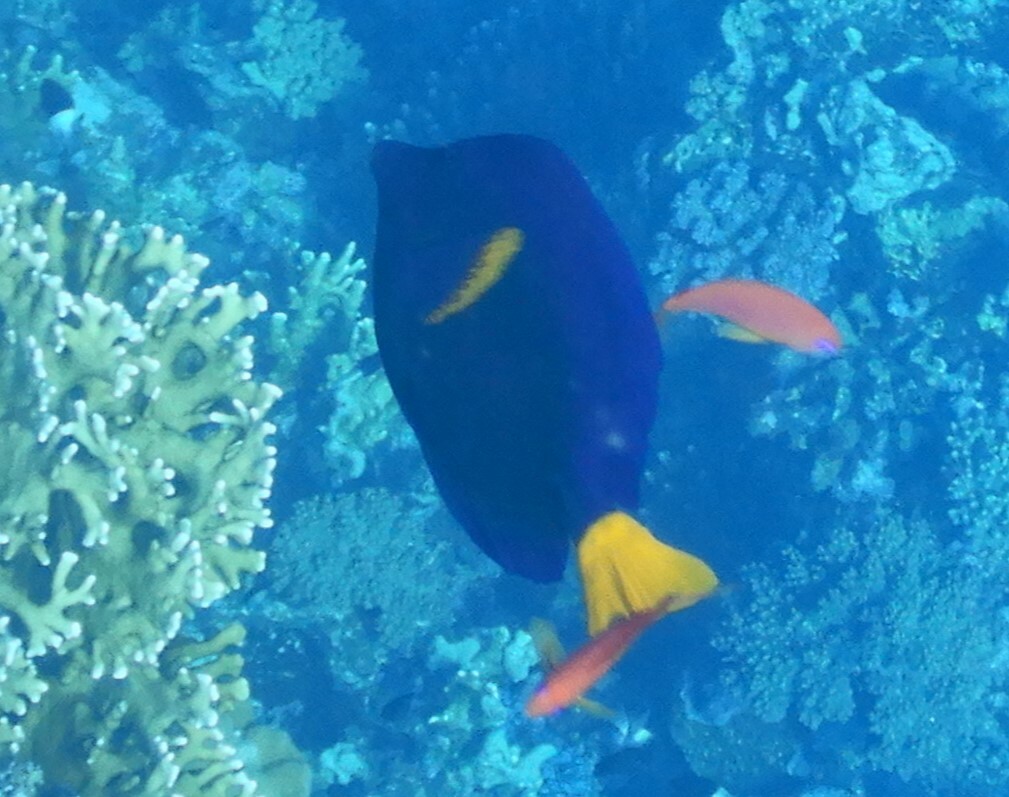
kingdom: Animalia
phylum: Chordata
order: Perciformes
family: Acanthuridae
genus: Zebrasoma
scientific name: Zebrasoma xanthurum
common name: Purple tang
